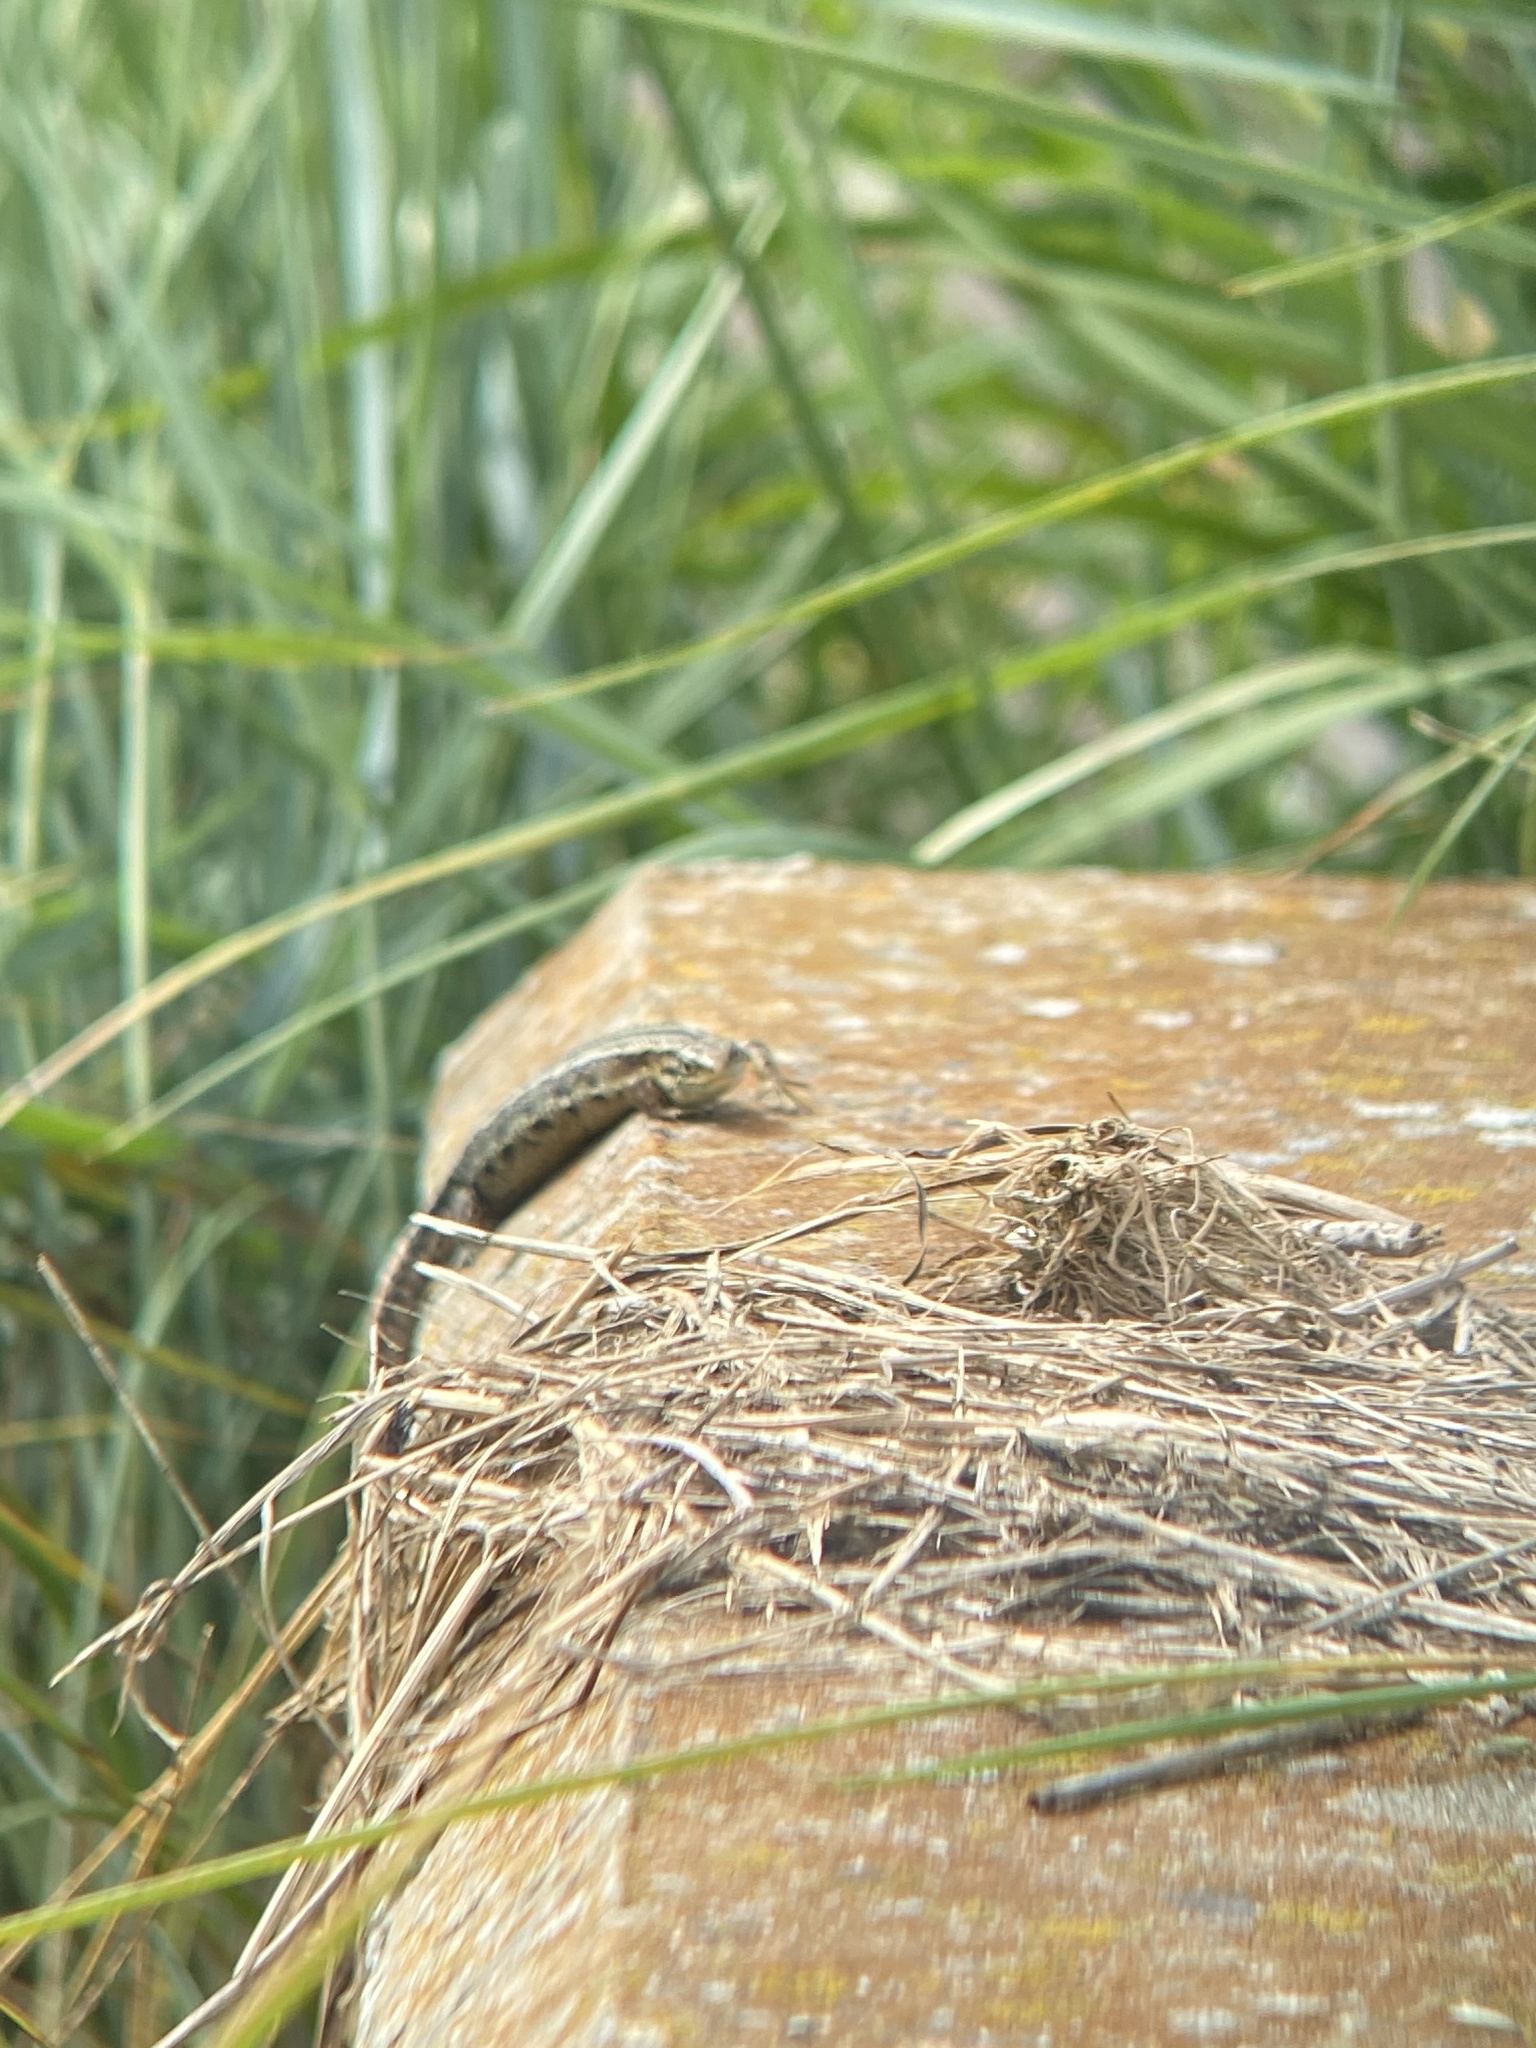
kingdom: Animalia
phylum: Chordata
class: Squamata
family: Lacertidae
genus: Zootoca
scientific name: Zootoca vivipara
